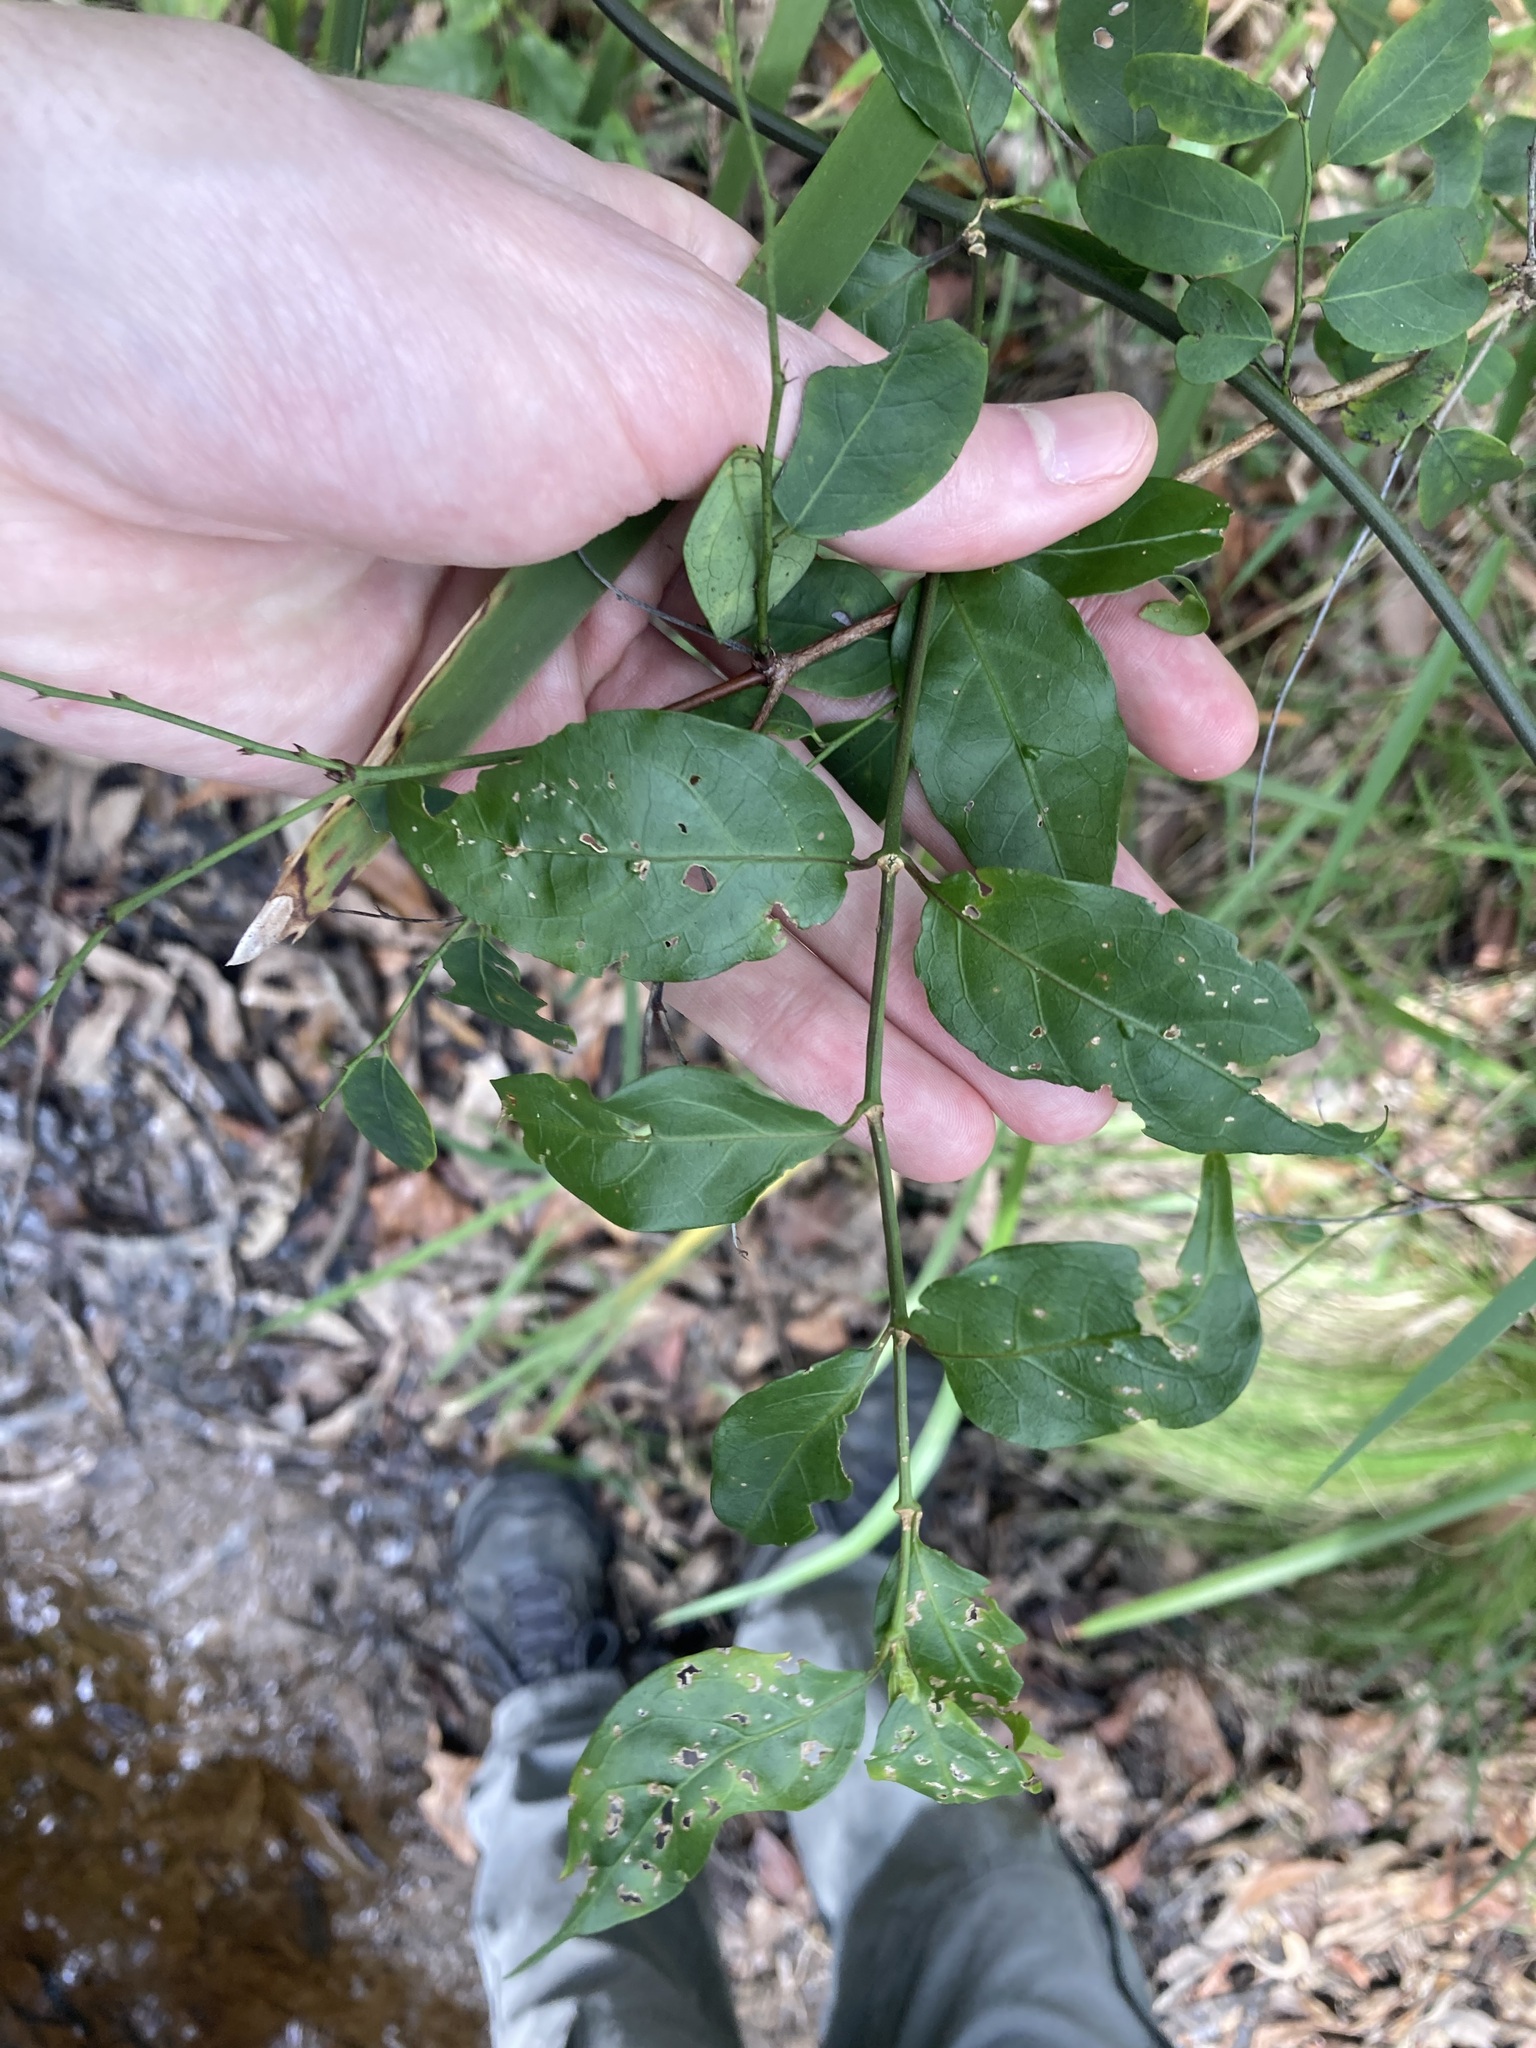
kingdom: Plantae
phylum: Tracheophyta
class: Magnoliopsida
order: Gentianales
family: Rubiaceae
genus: Gynochthodes
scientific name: Gynochthodes jasminoides
